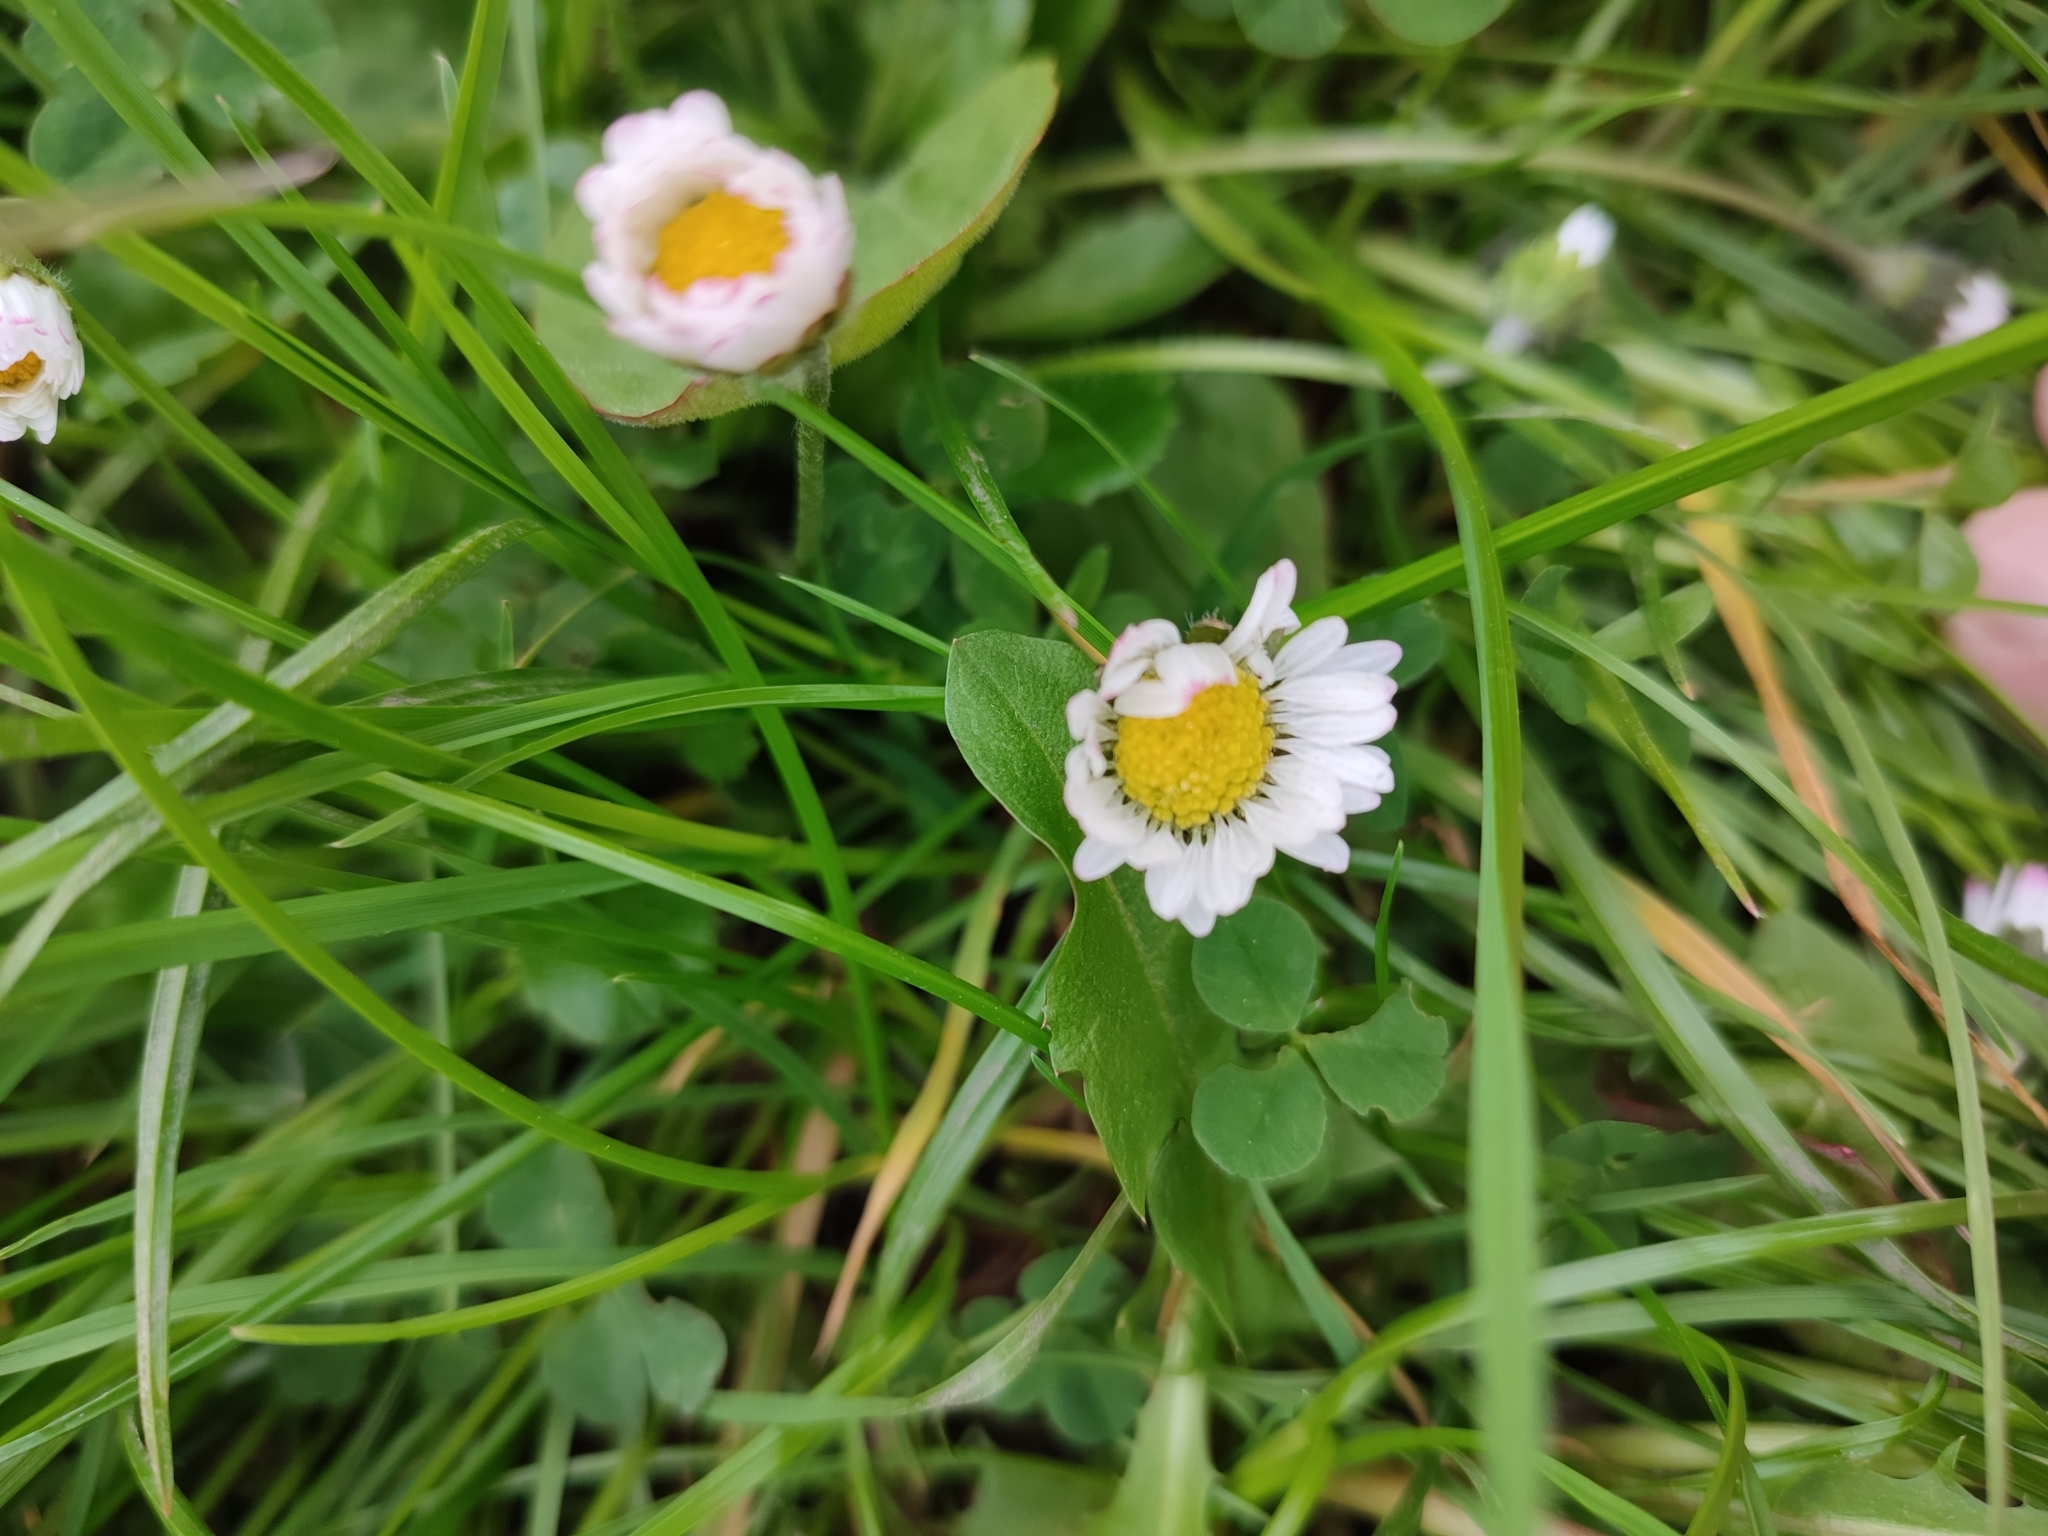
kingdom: Plantae
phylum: Tracheophyta
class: Magnoliopsida
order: Asterales
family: Asteraceae
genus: Bellis
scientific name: Bellis perennis
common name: Lawndaisy
